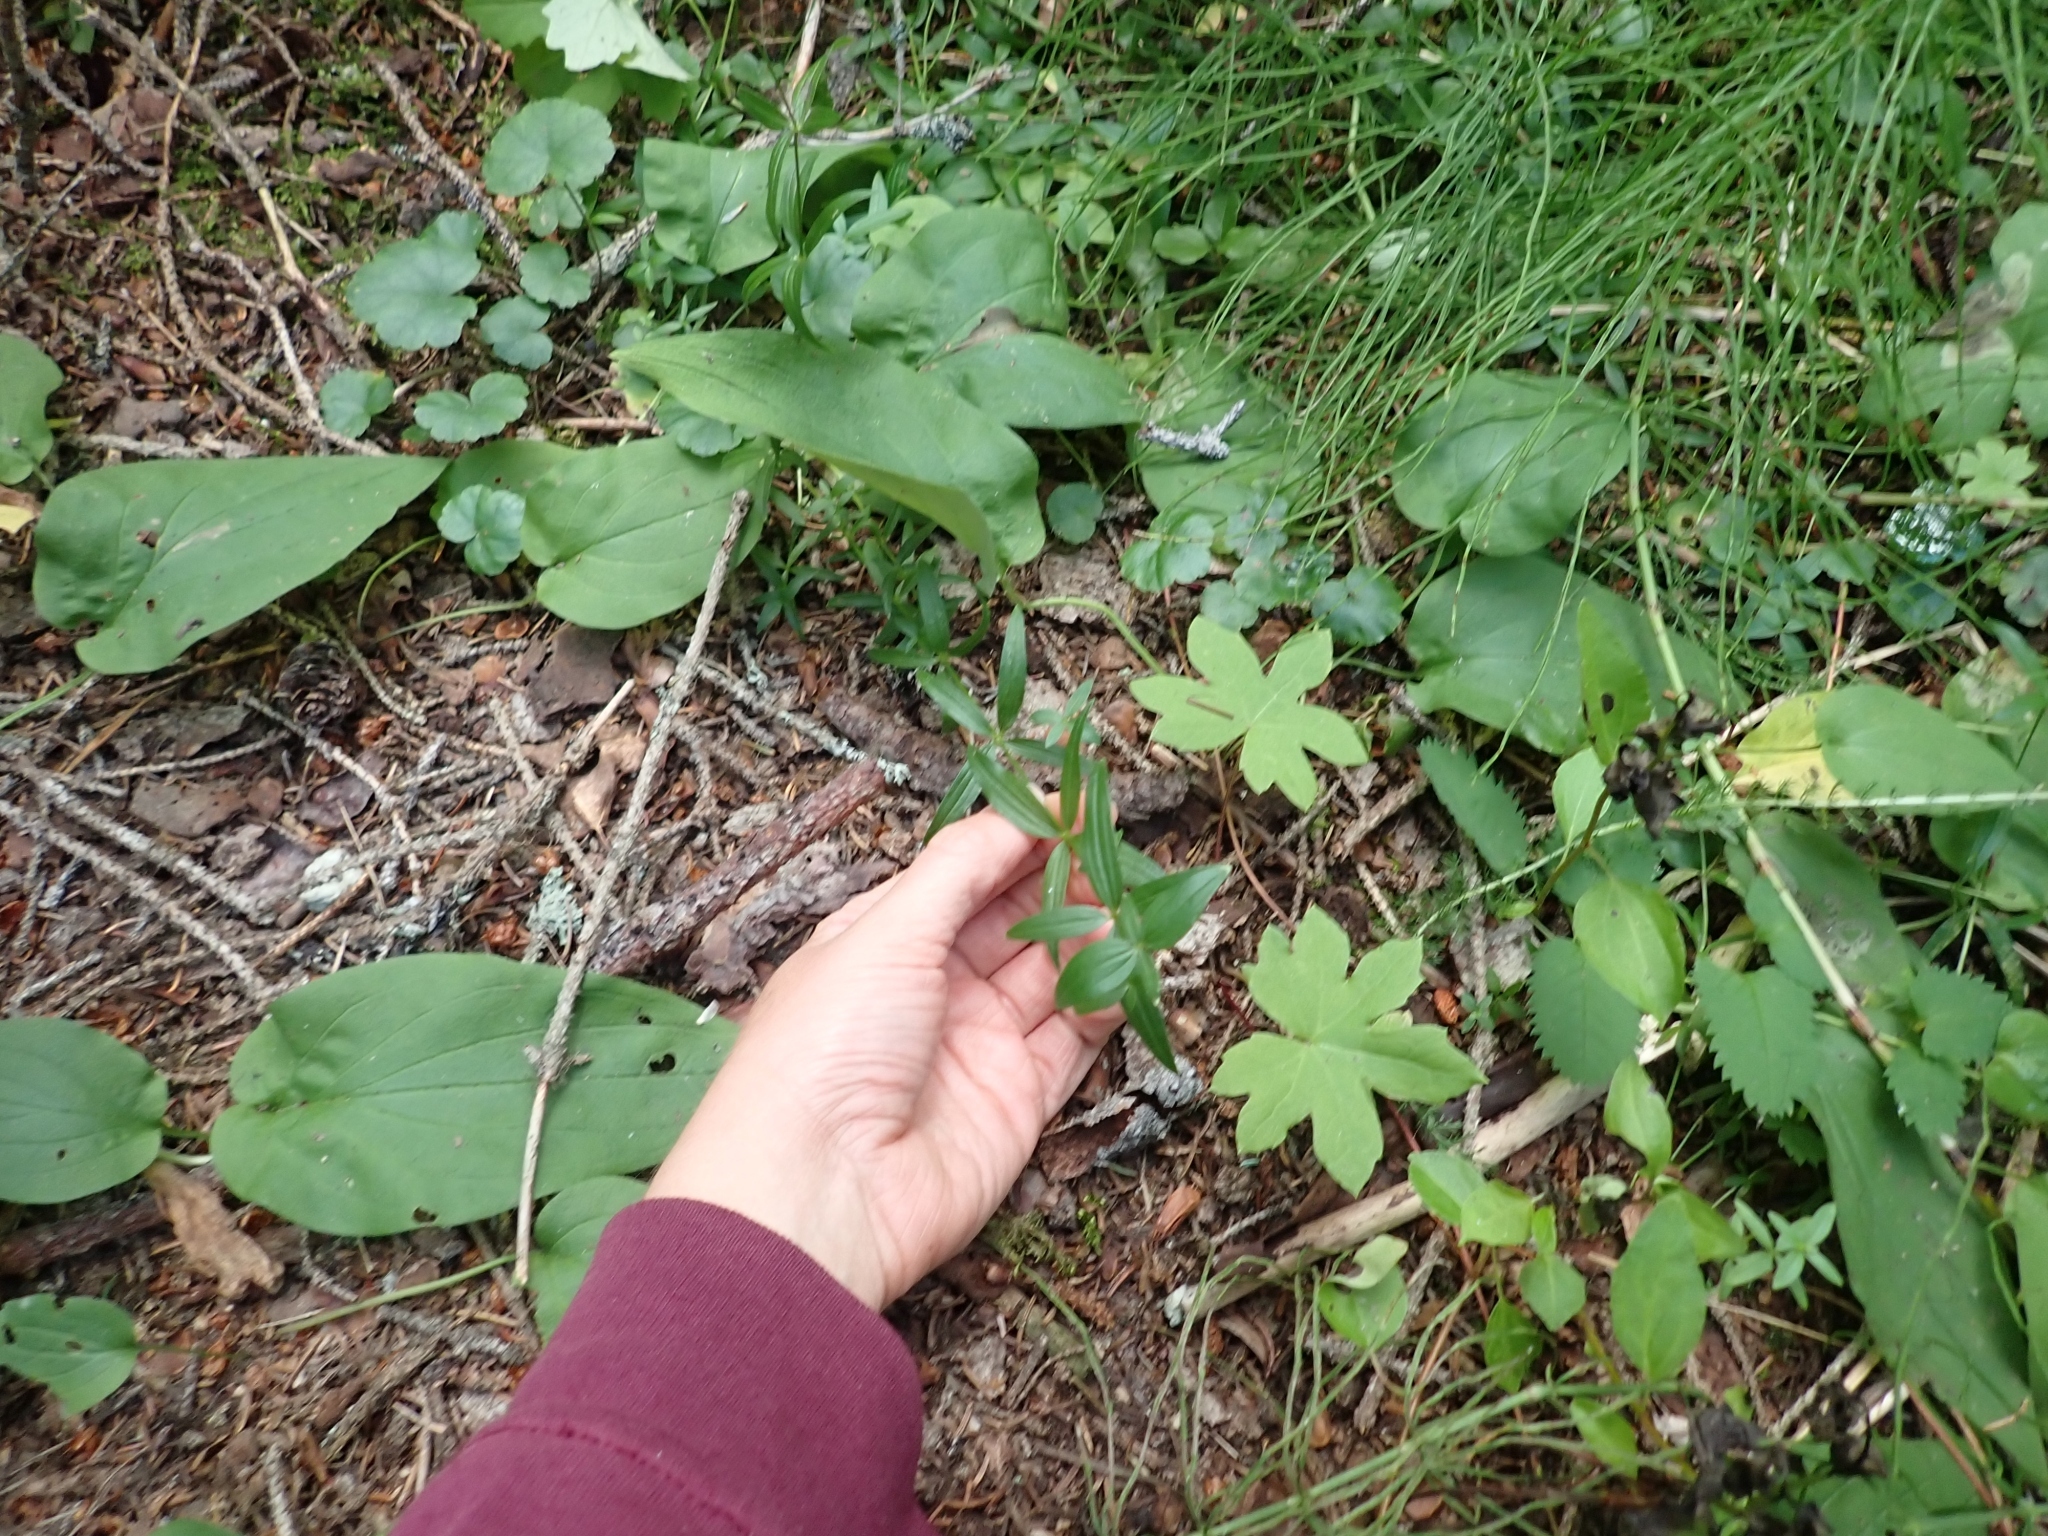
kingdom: Plantae
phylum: Tracheophyta
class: Magnoliopsida
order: Gentianales
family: Rubiaceae
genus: Galium
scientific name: Galium boreale
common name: Northern bedstraw
